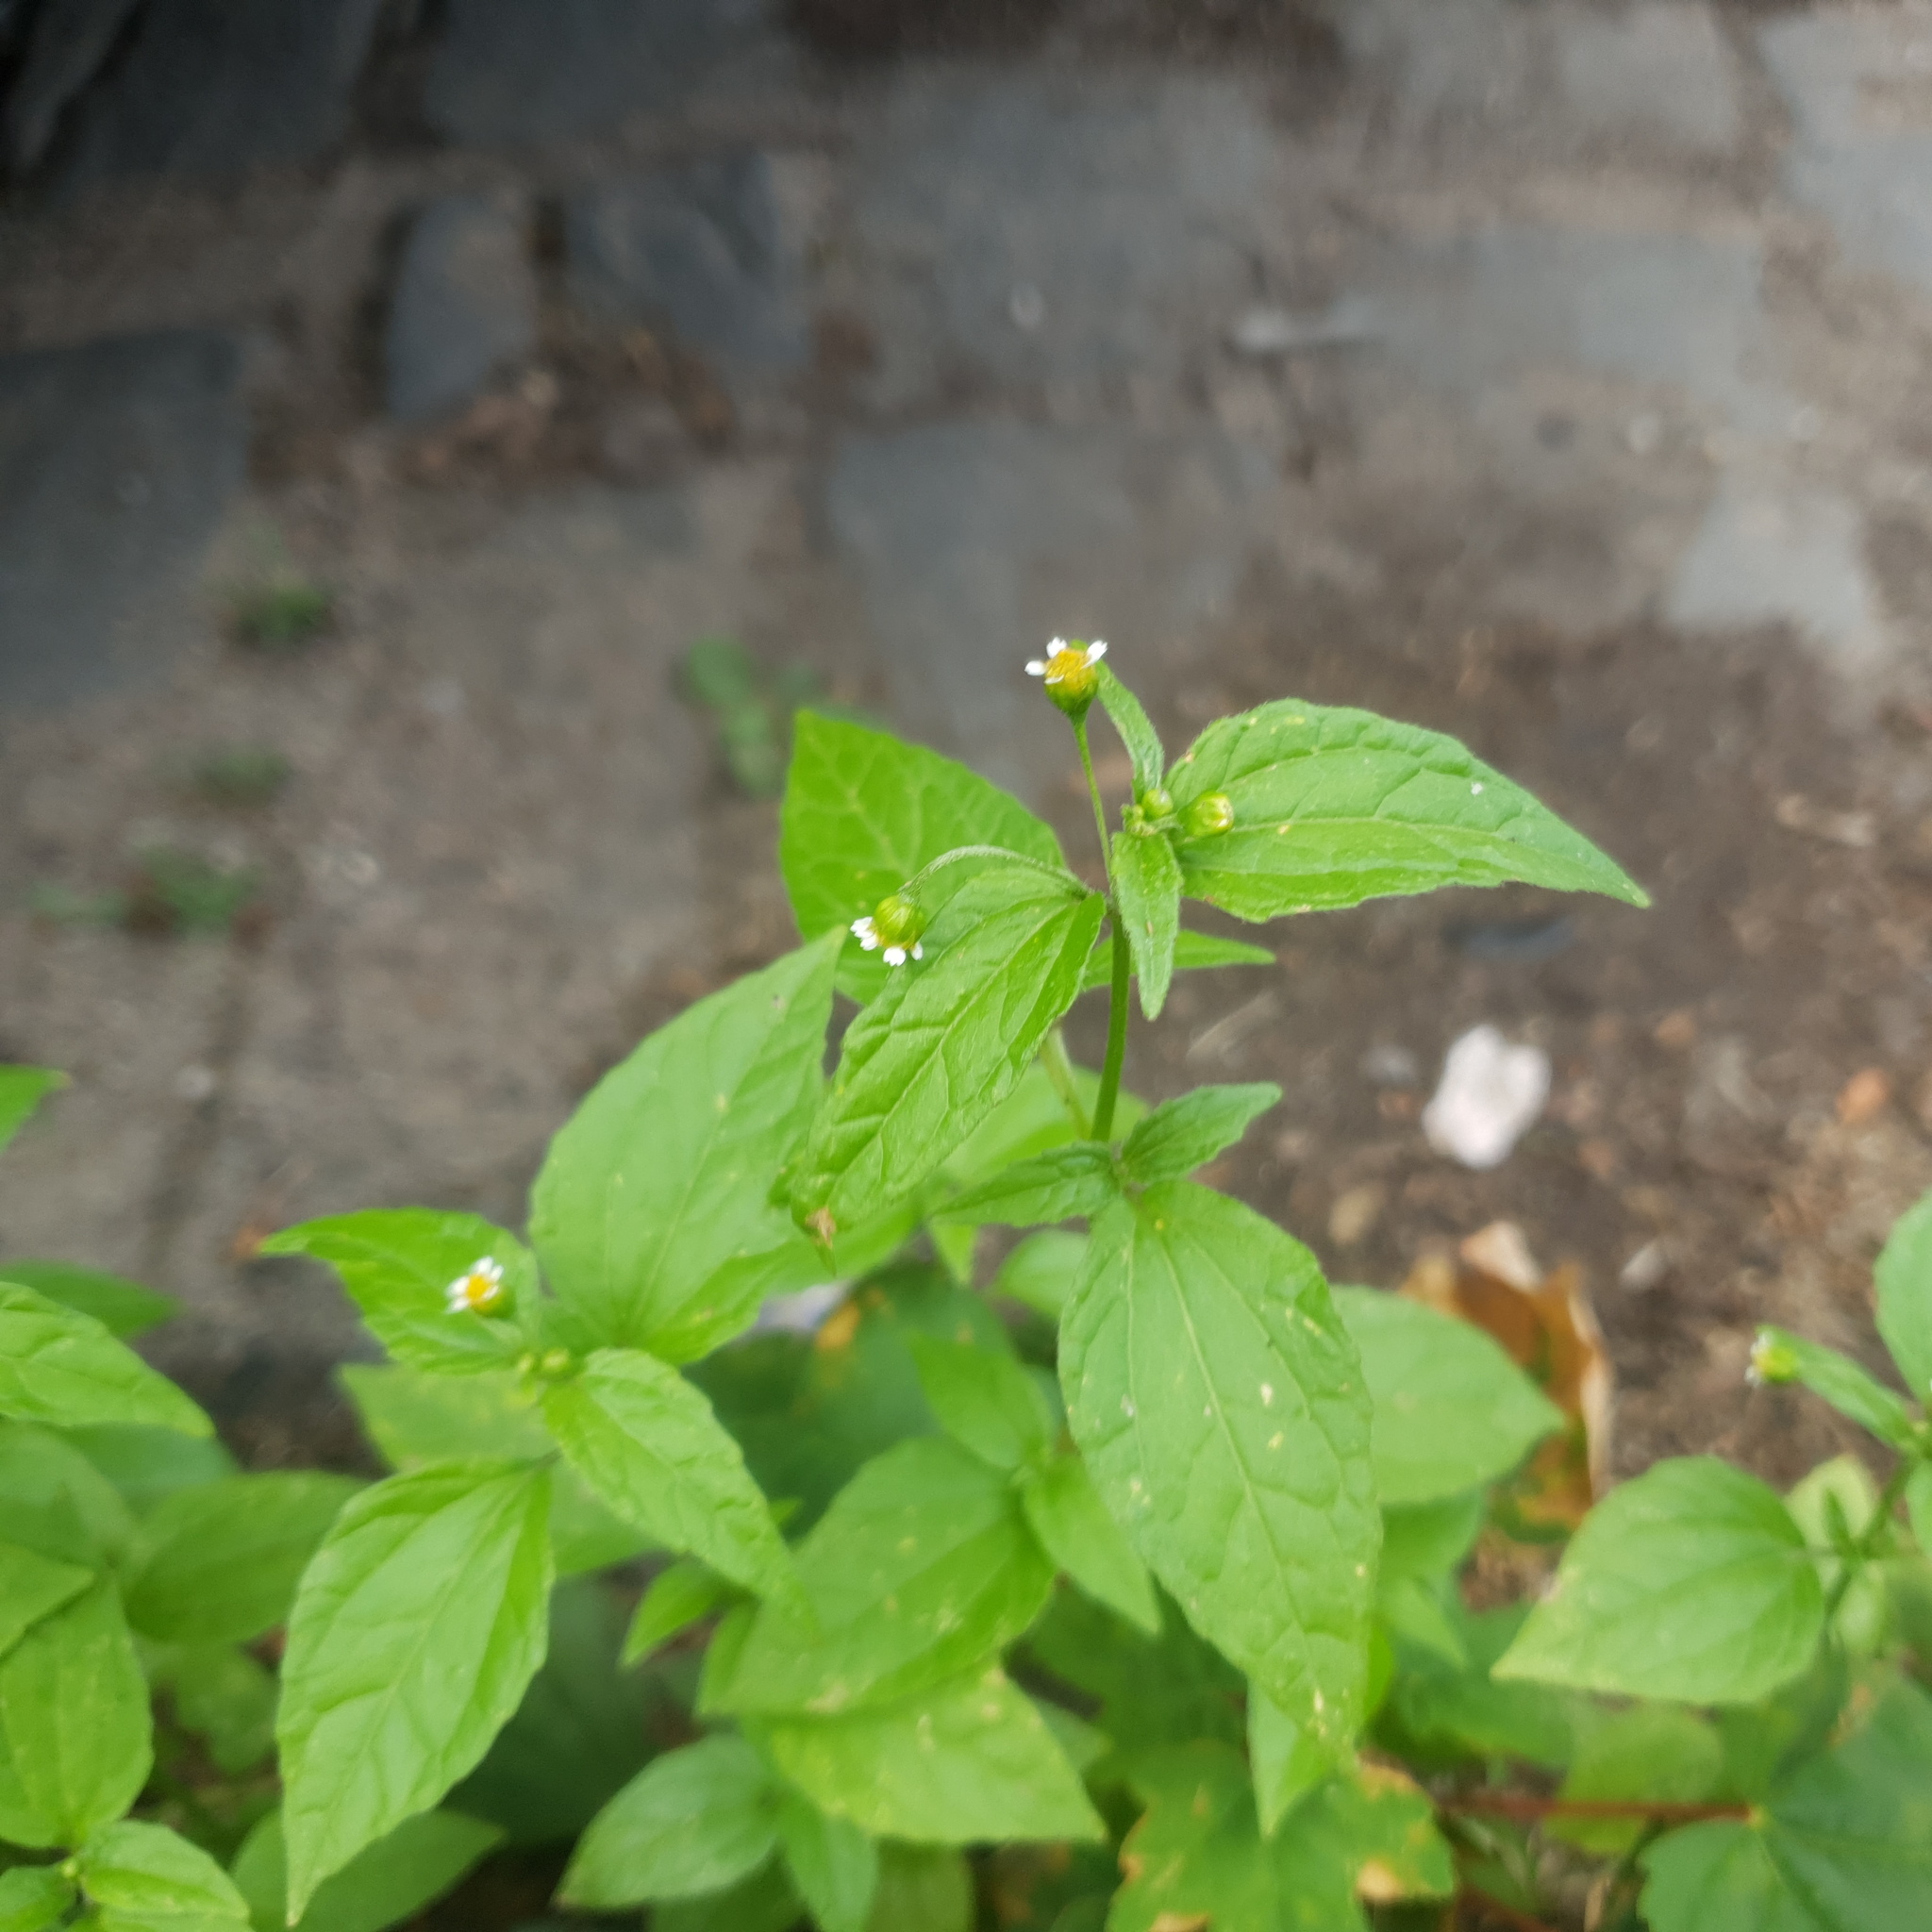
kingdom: Plantae
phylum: Tracheophyta
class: Magnoliopsida
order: Asterales
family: Asteraceae
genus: Galinsoga
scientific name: Galinsoga parviflora
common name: Gallant soldier
